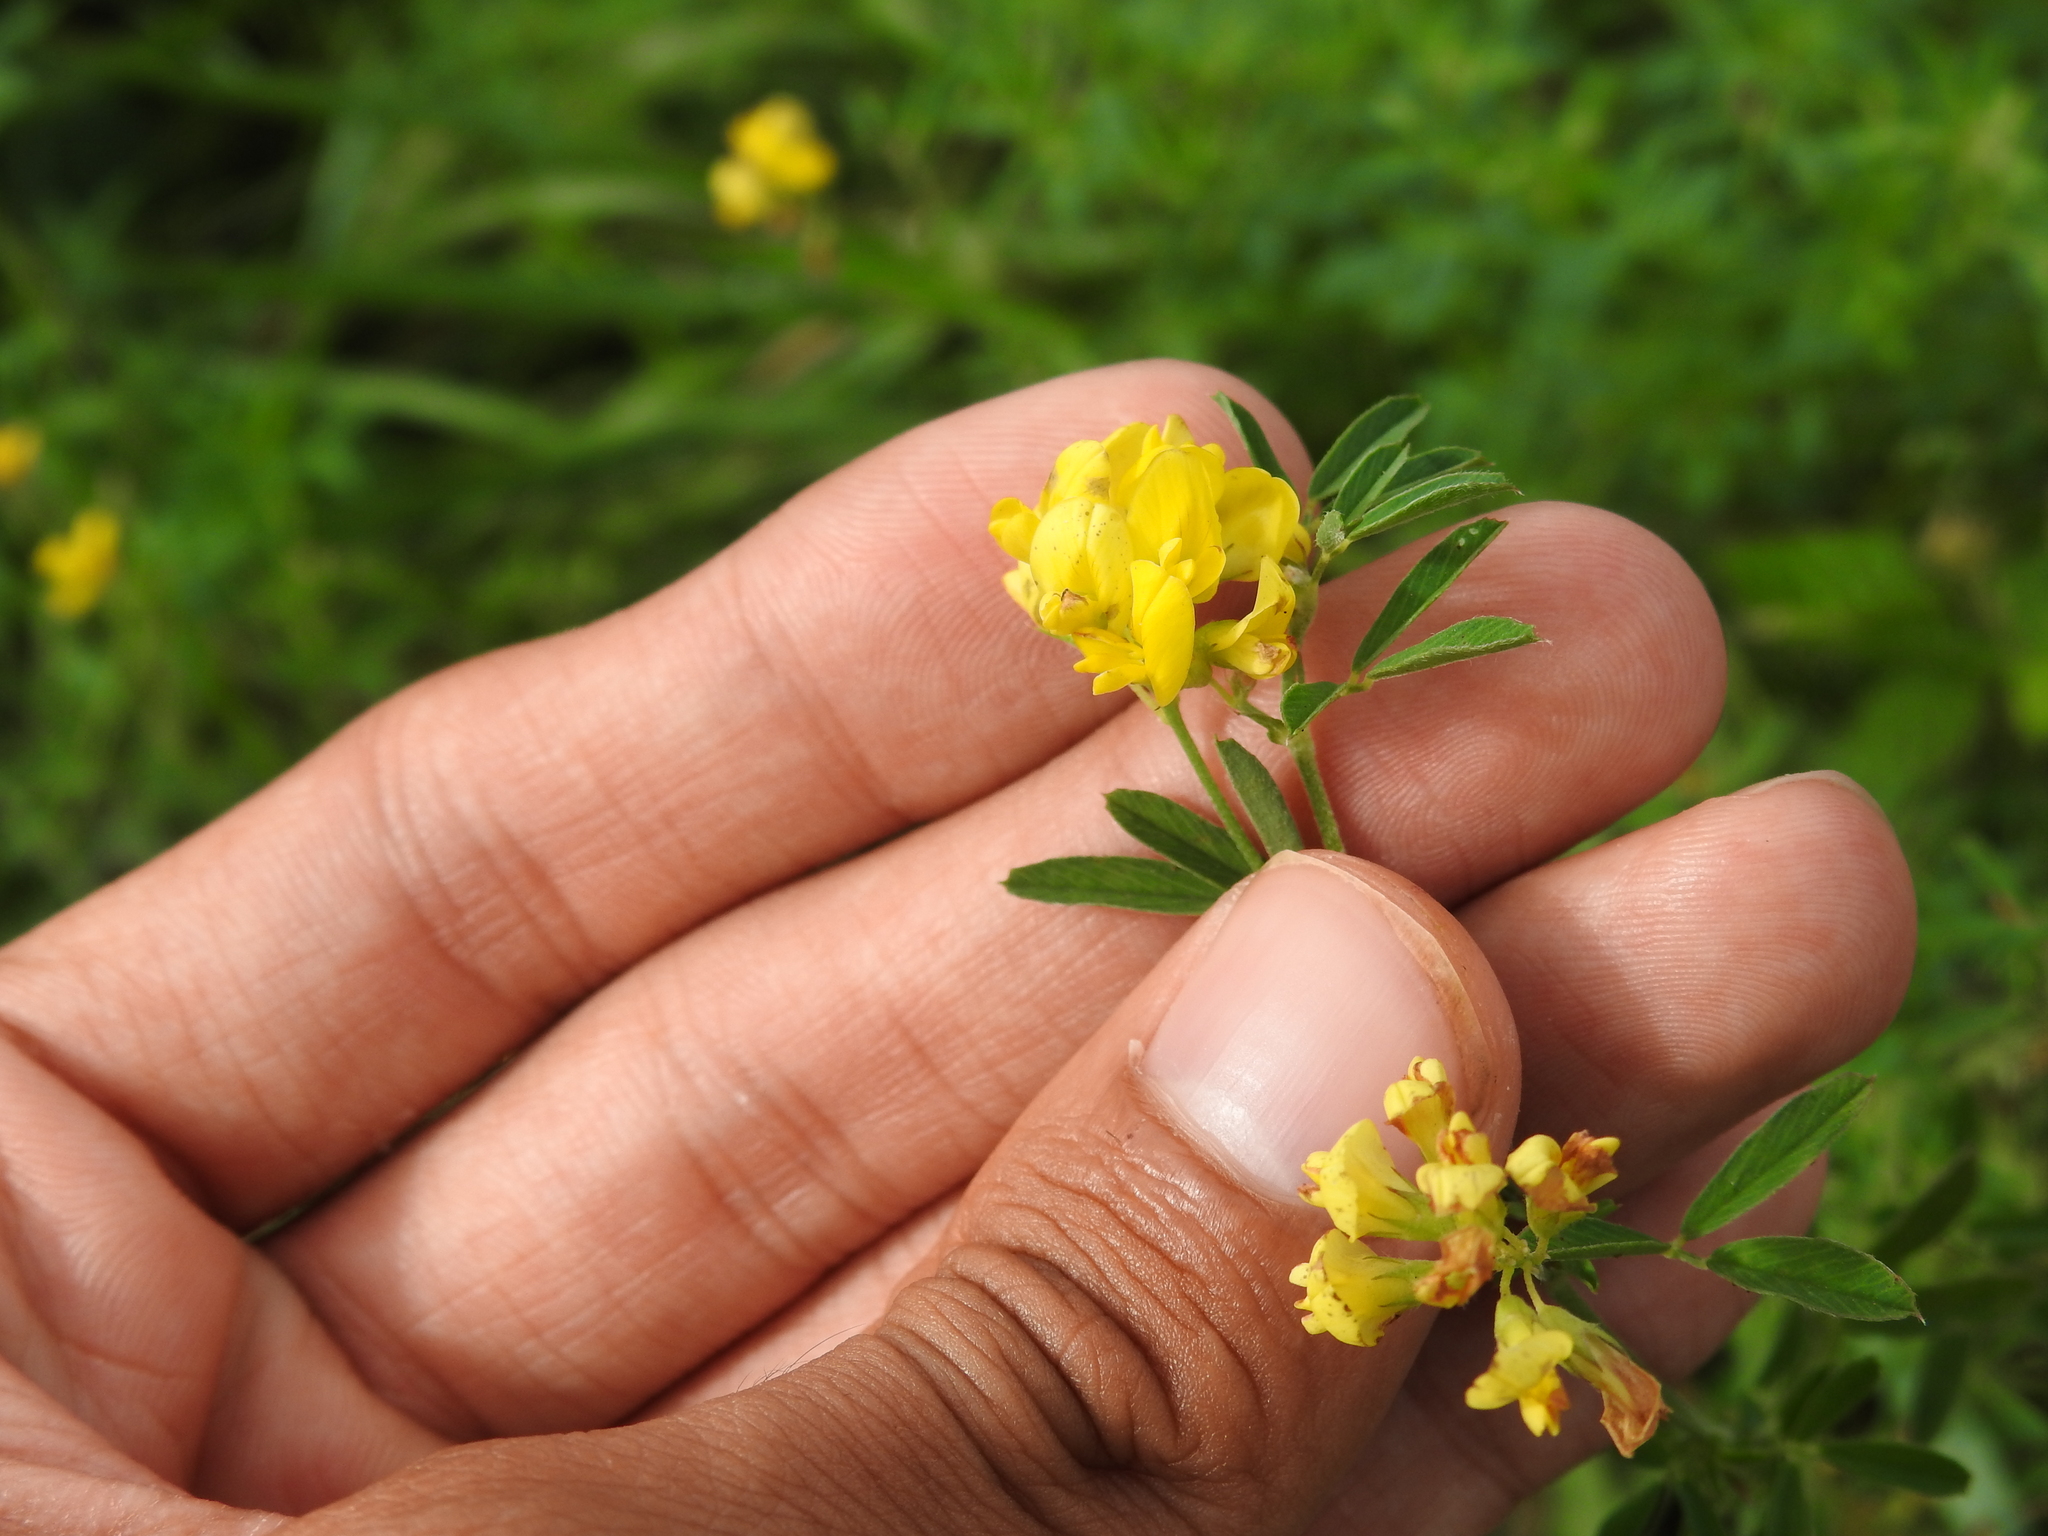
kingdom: Plantae
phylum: Tracheophyta
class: Magnoliopsida
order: Fabales
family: Fabaceae
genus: Medicago
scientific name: Medicago falcata
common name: Sickle medick
